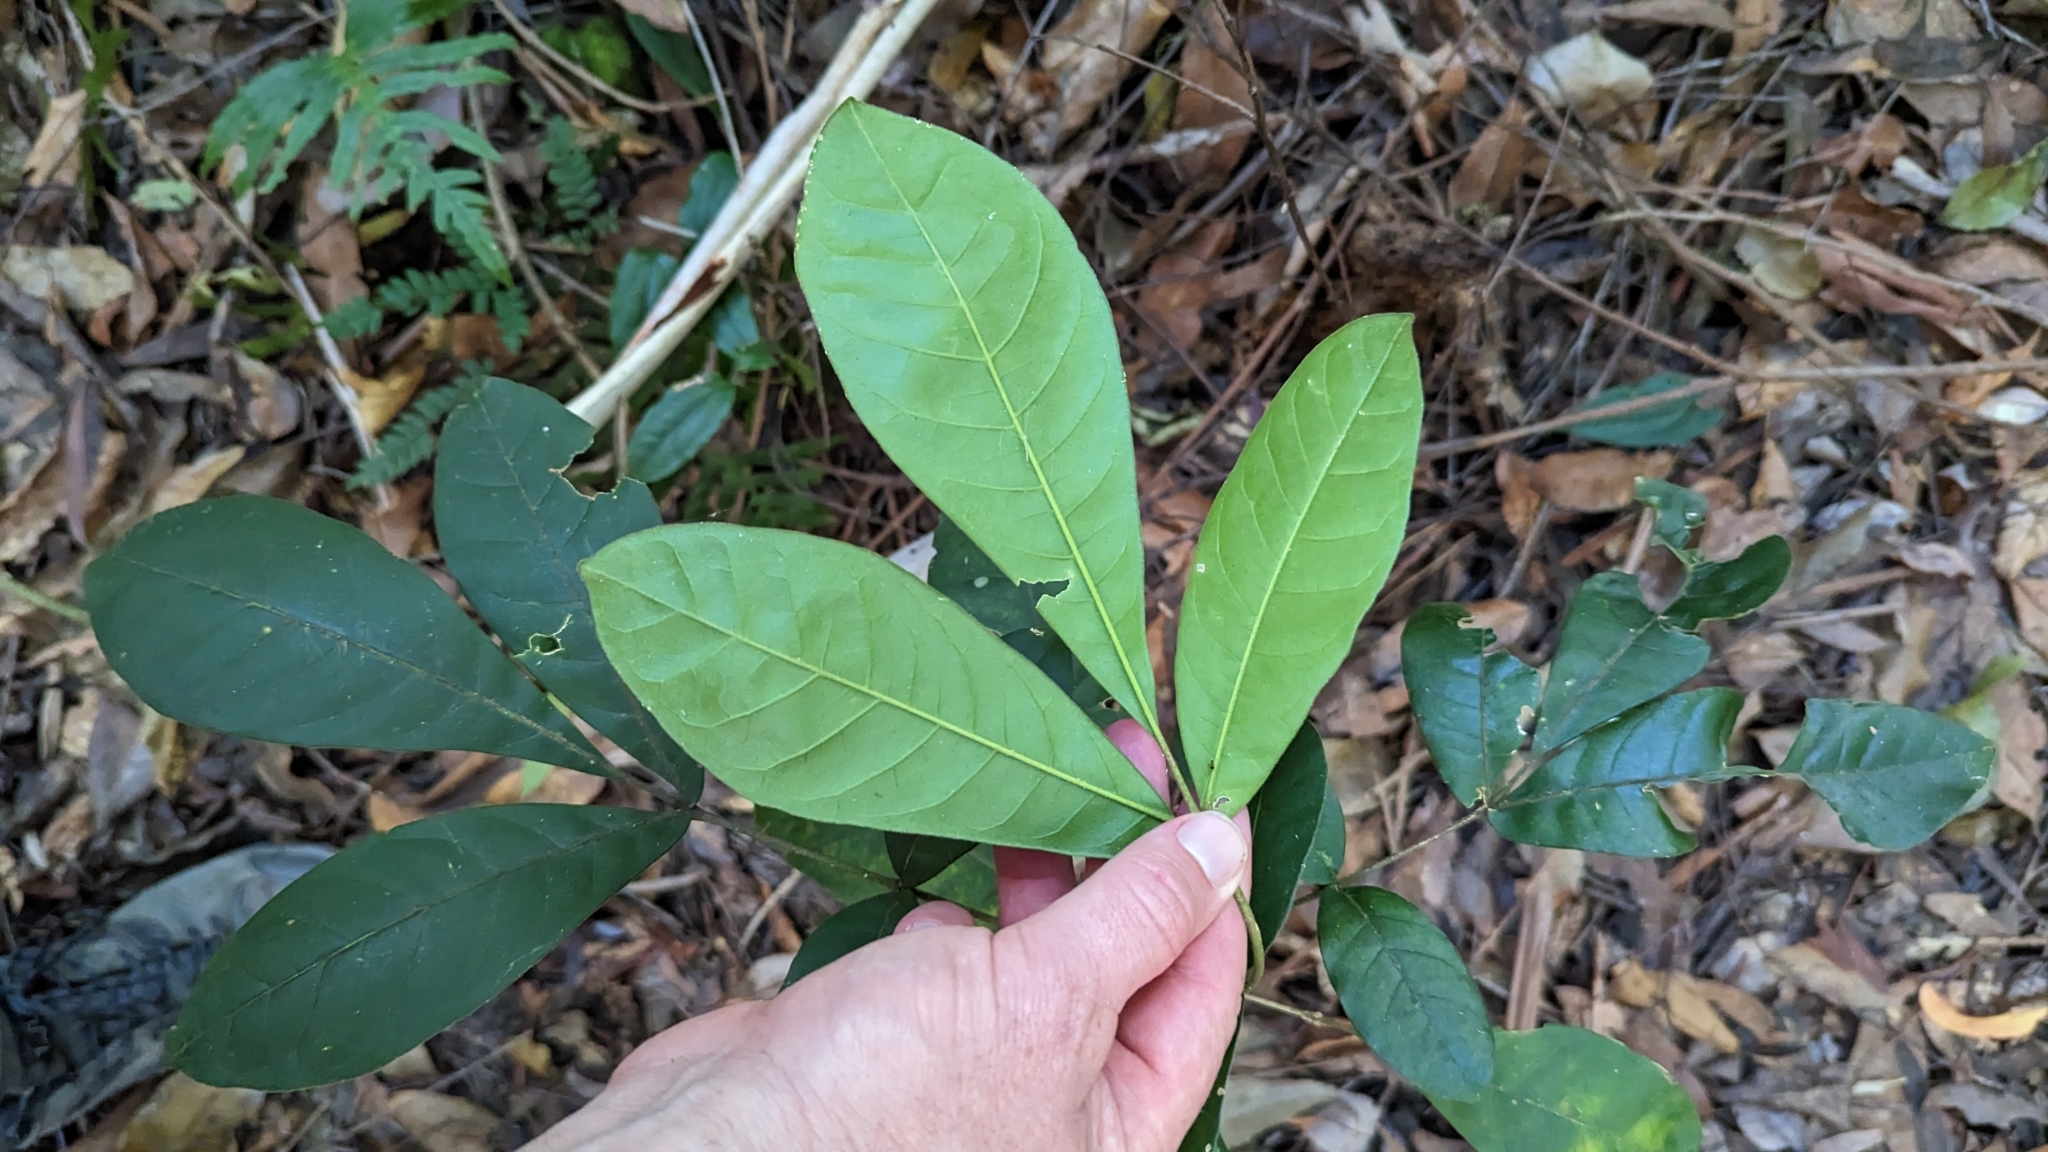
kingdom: Plantae
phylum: Tracheophyta
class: Magnoliopsida
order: Sapindales
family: Meliaceae
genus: Synoum
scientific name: Synoum glandulosum
